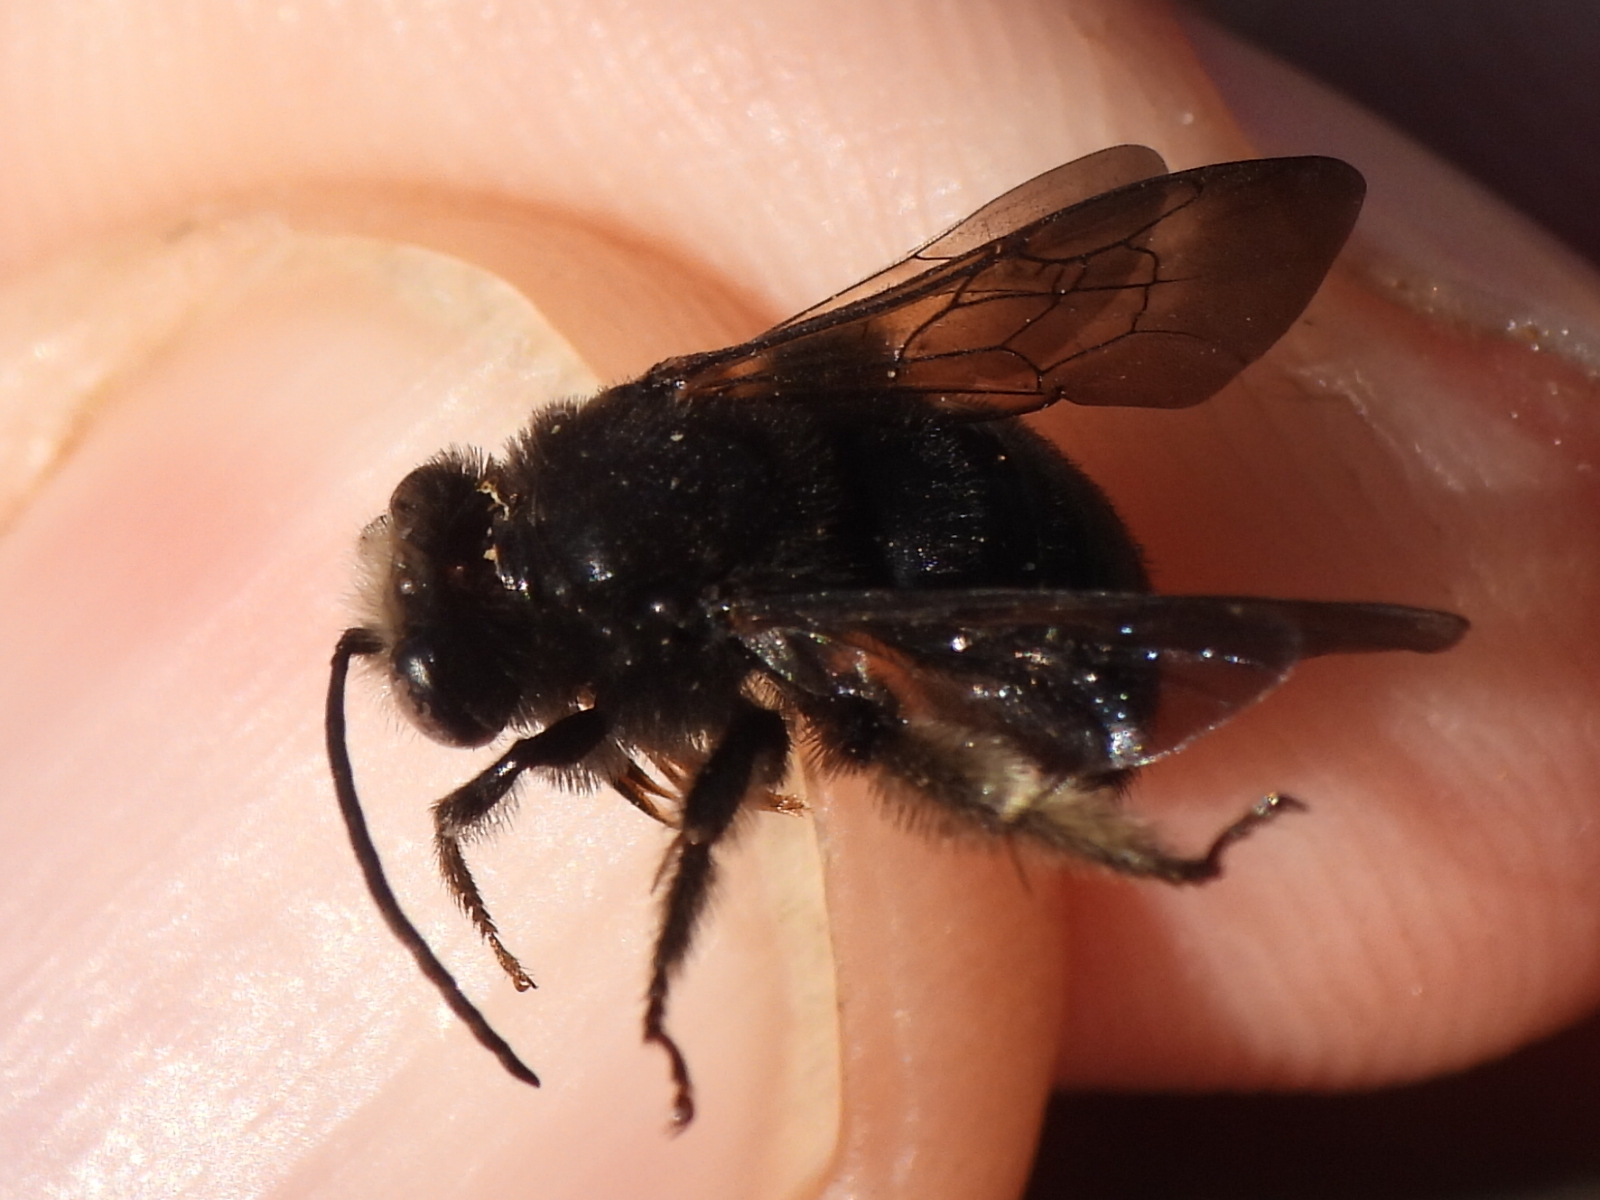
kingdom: Animalia
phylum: Arthropoda
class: Insecta
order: Hymenoptera
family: Apidae
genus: Melissodes
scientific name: Melissodes bimaculatus
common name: Two-spotted long-horned bee
